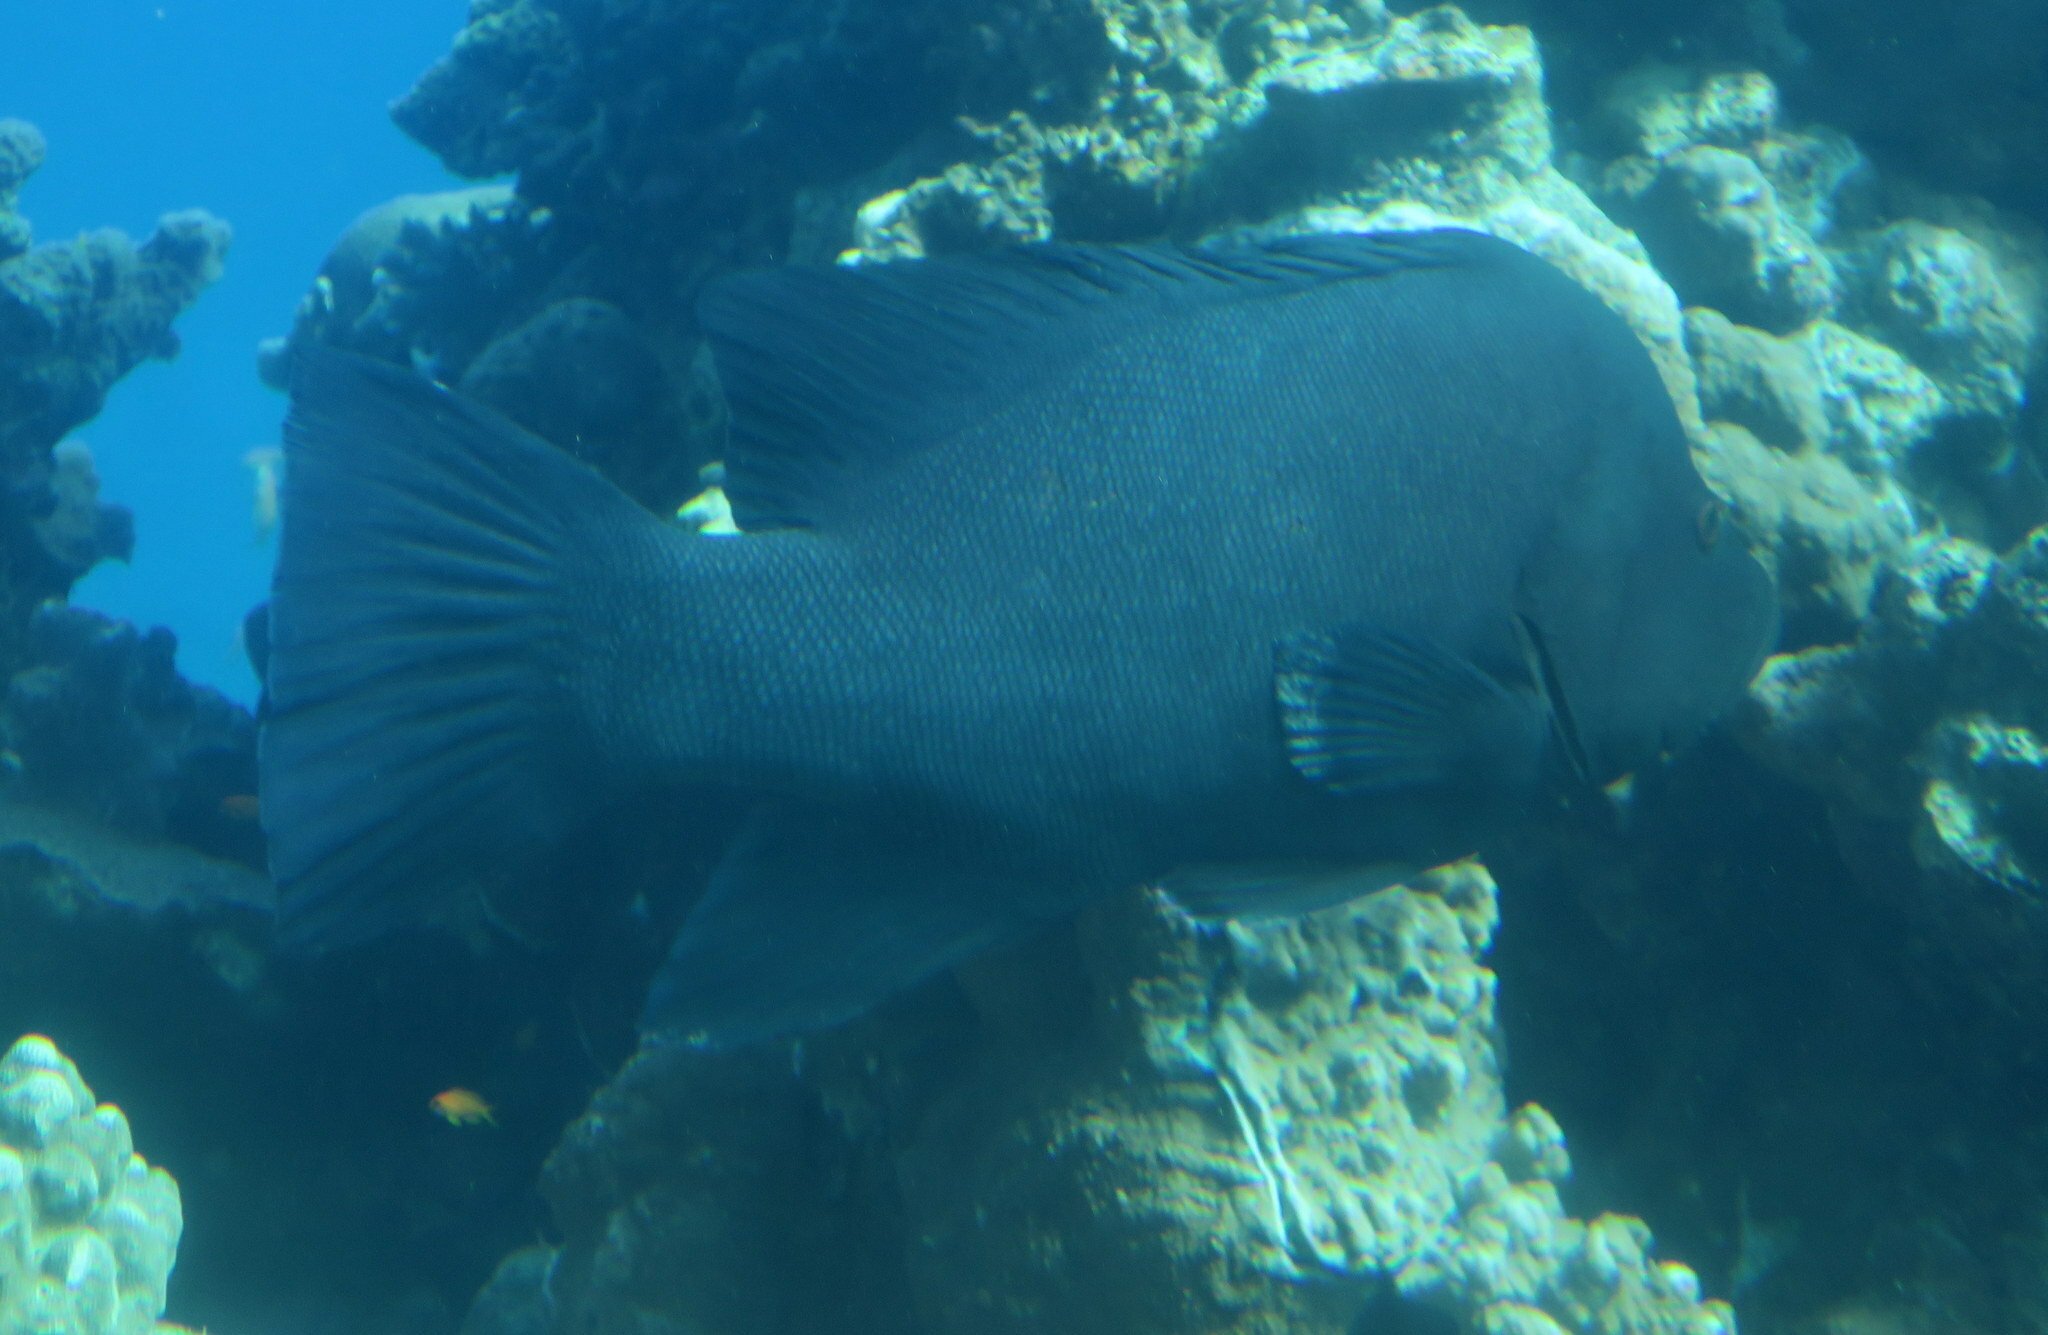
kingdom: Animalia
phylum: Chordata
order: Perciformes
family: Serranidae
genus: Aethaloperca
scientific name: Aethaloperca rogaa
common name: Redmouth grouper
